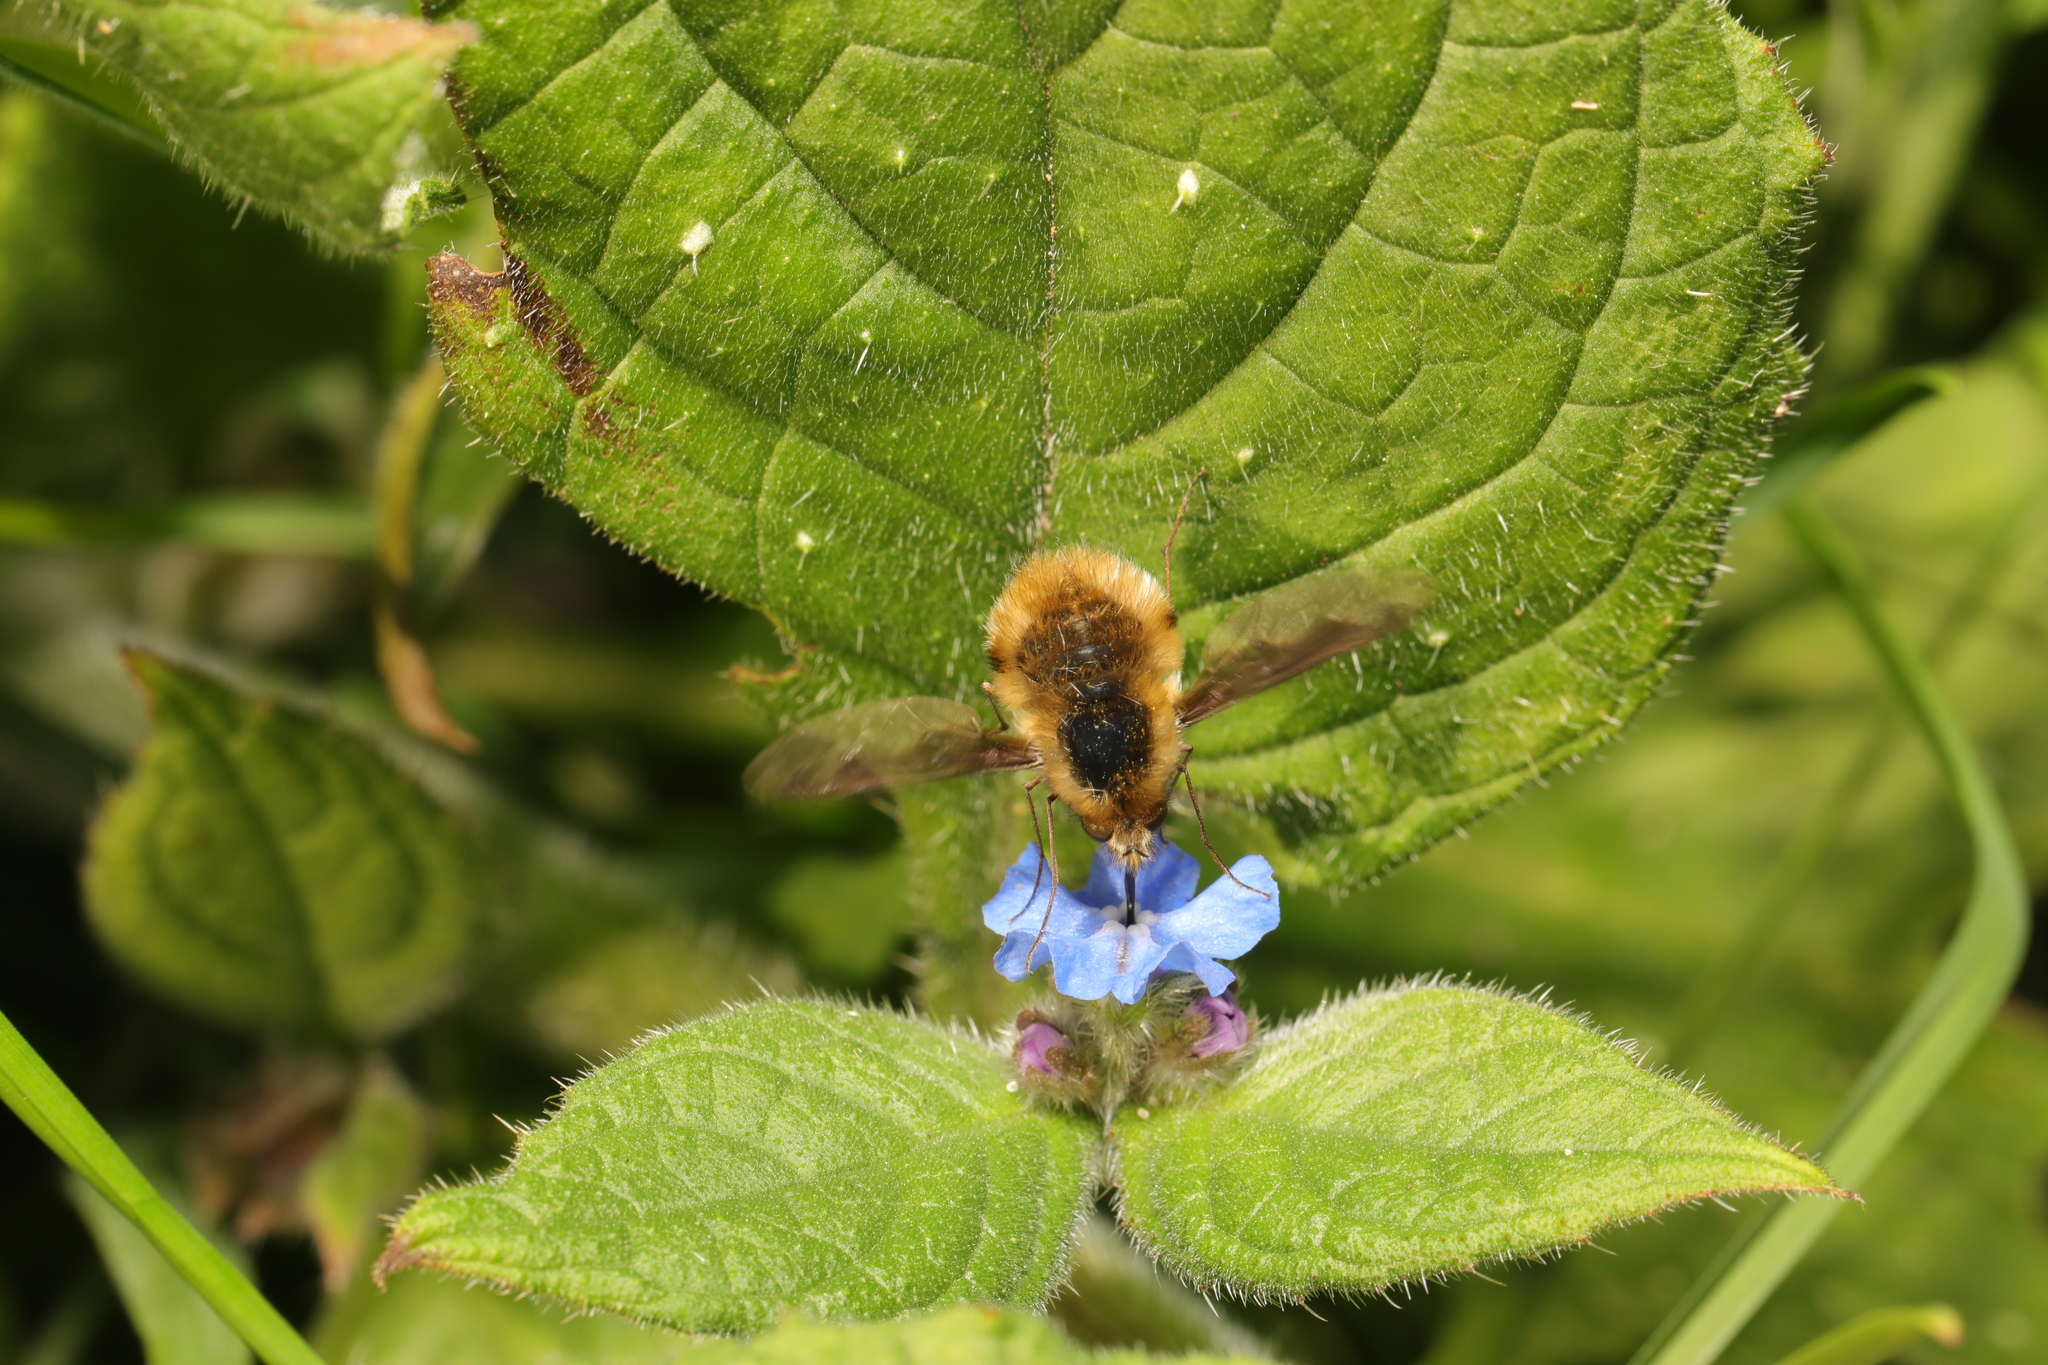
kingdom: Animalia
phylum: Arthropoda
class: Insecta
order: Diptera
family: Bombyliidae
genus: Bombylius
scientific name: Bombylius major
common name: Bee fly
